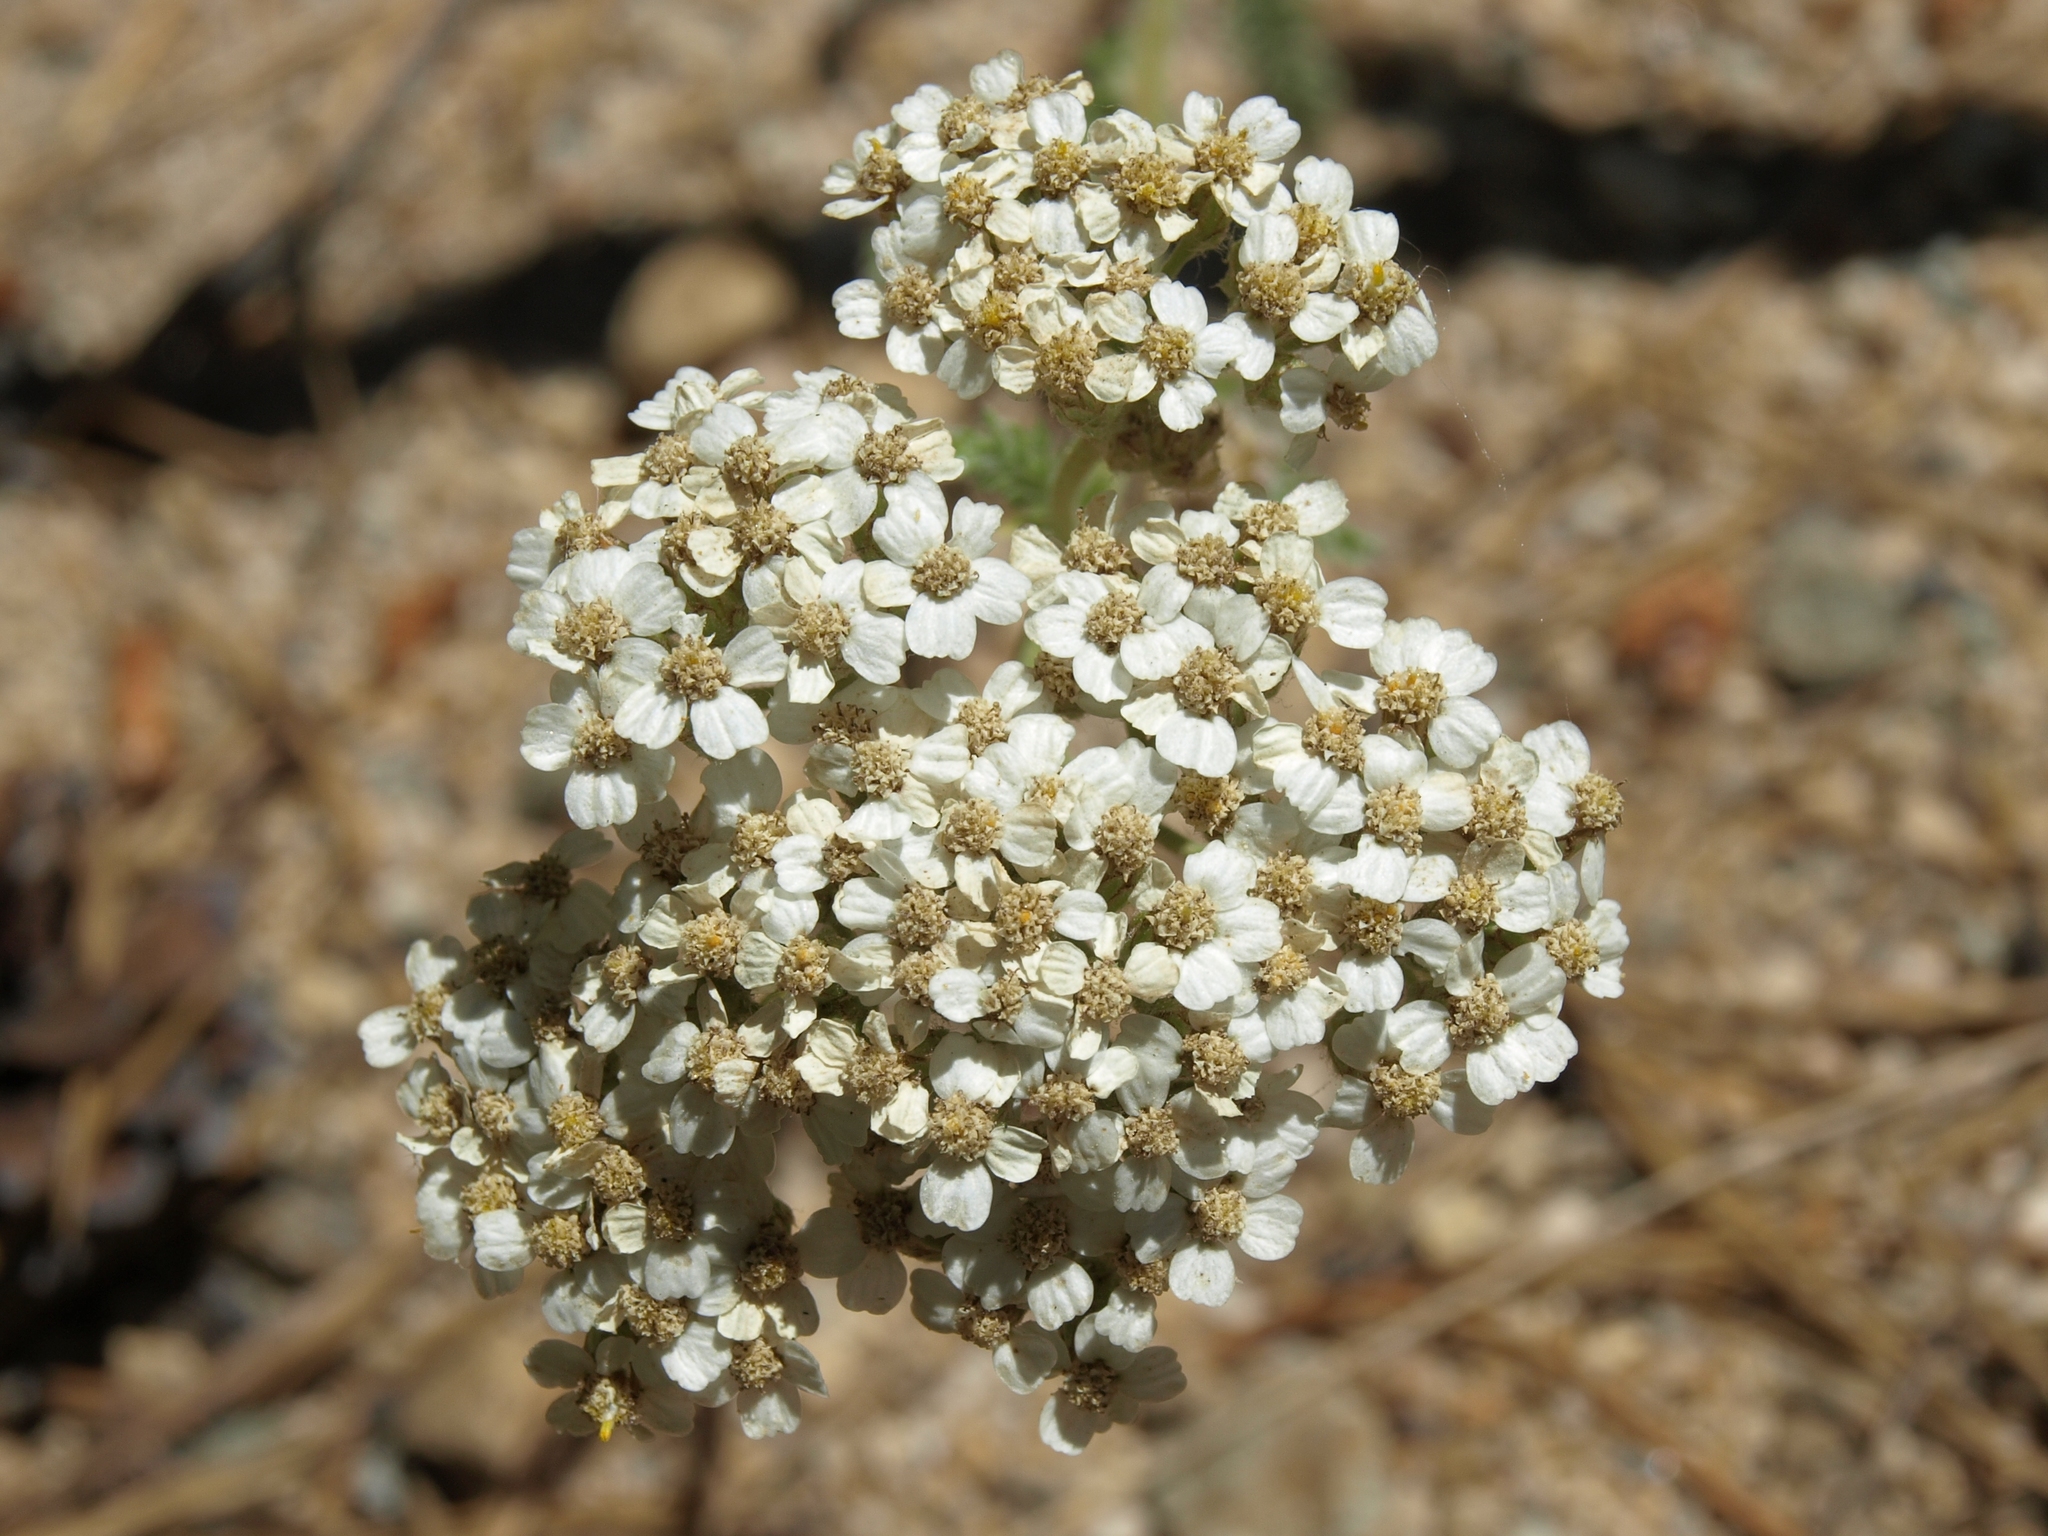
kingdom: Plantae
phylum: Tracheophyta
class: Magnoliopsida
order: Asterales
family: Asteraceae
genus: Achillea
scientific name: Achillea millefolium
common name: Yarrow
